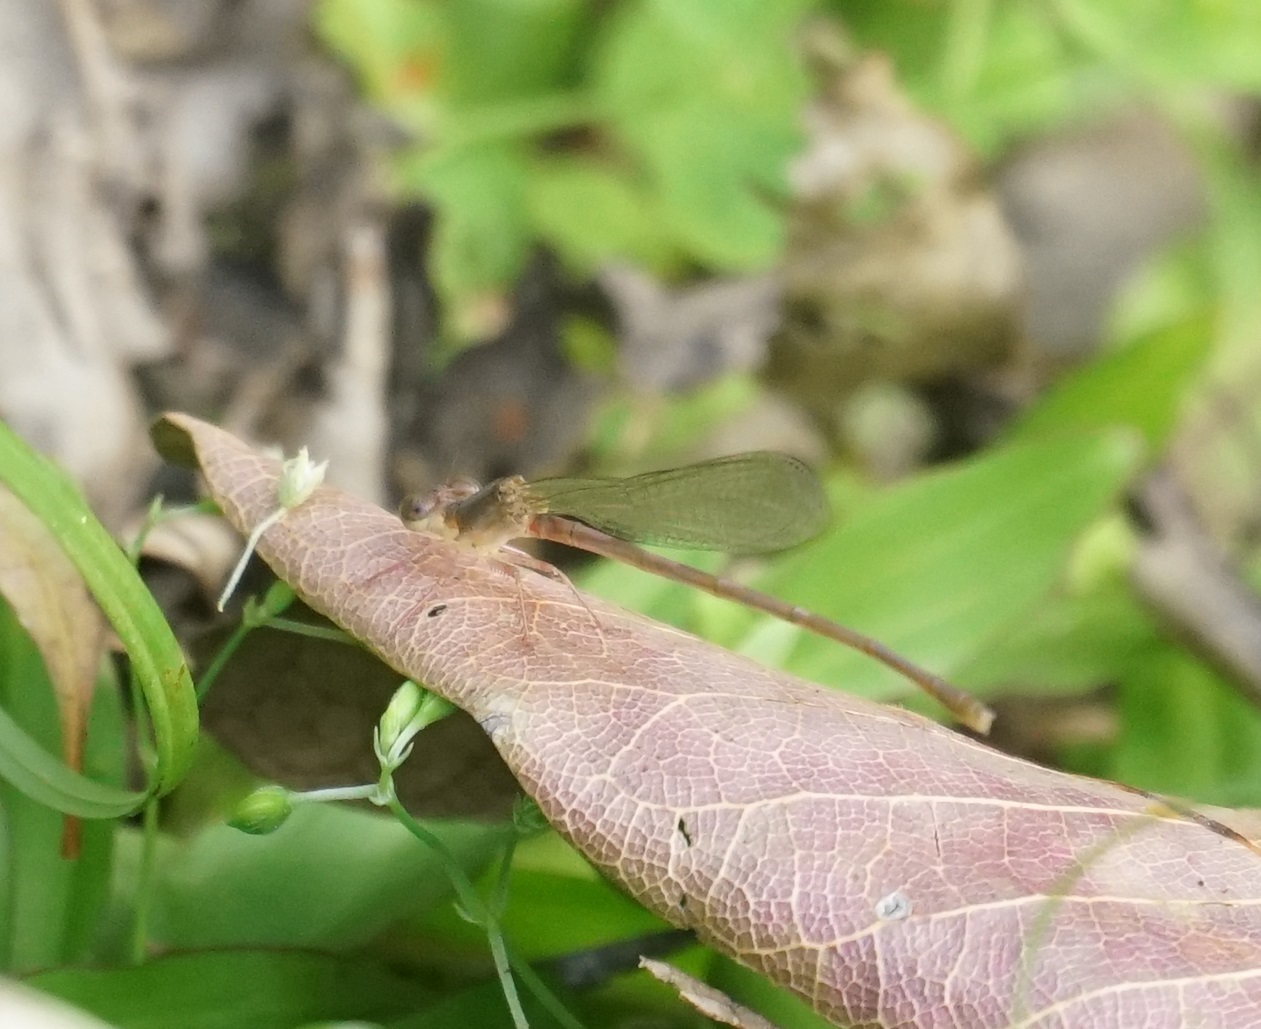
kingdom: Animalia
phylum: Arthropoda
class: Insecta
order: Odonata
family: Coenagrionidae
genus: Ceriagrion
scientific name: Ceriagrion aeruginosum
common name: Redtail
